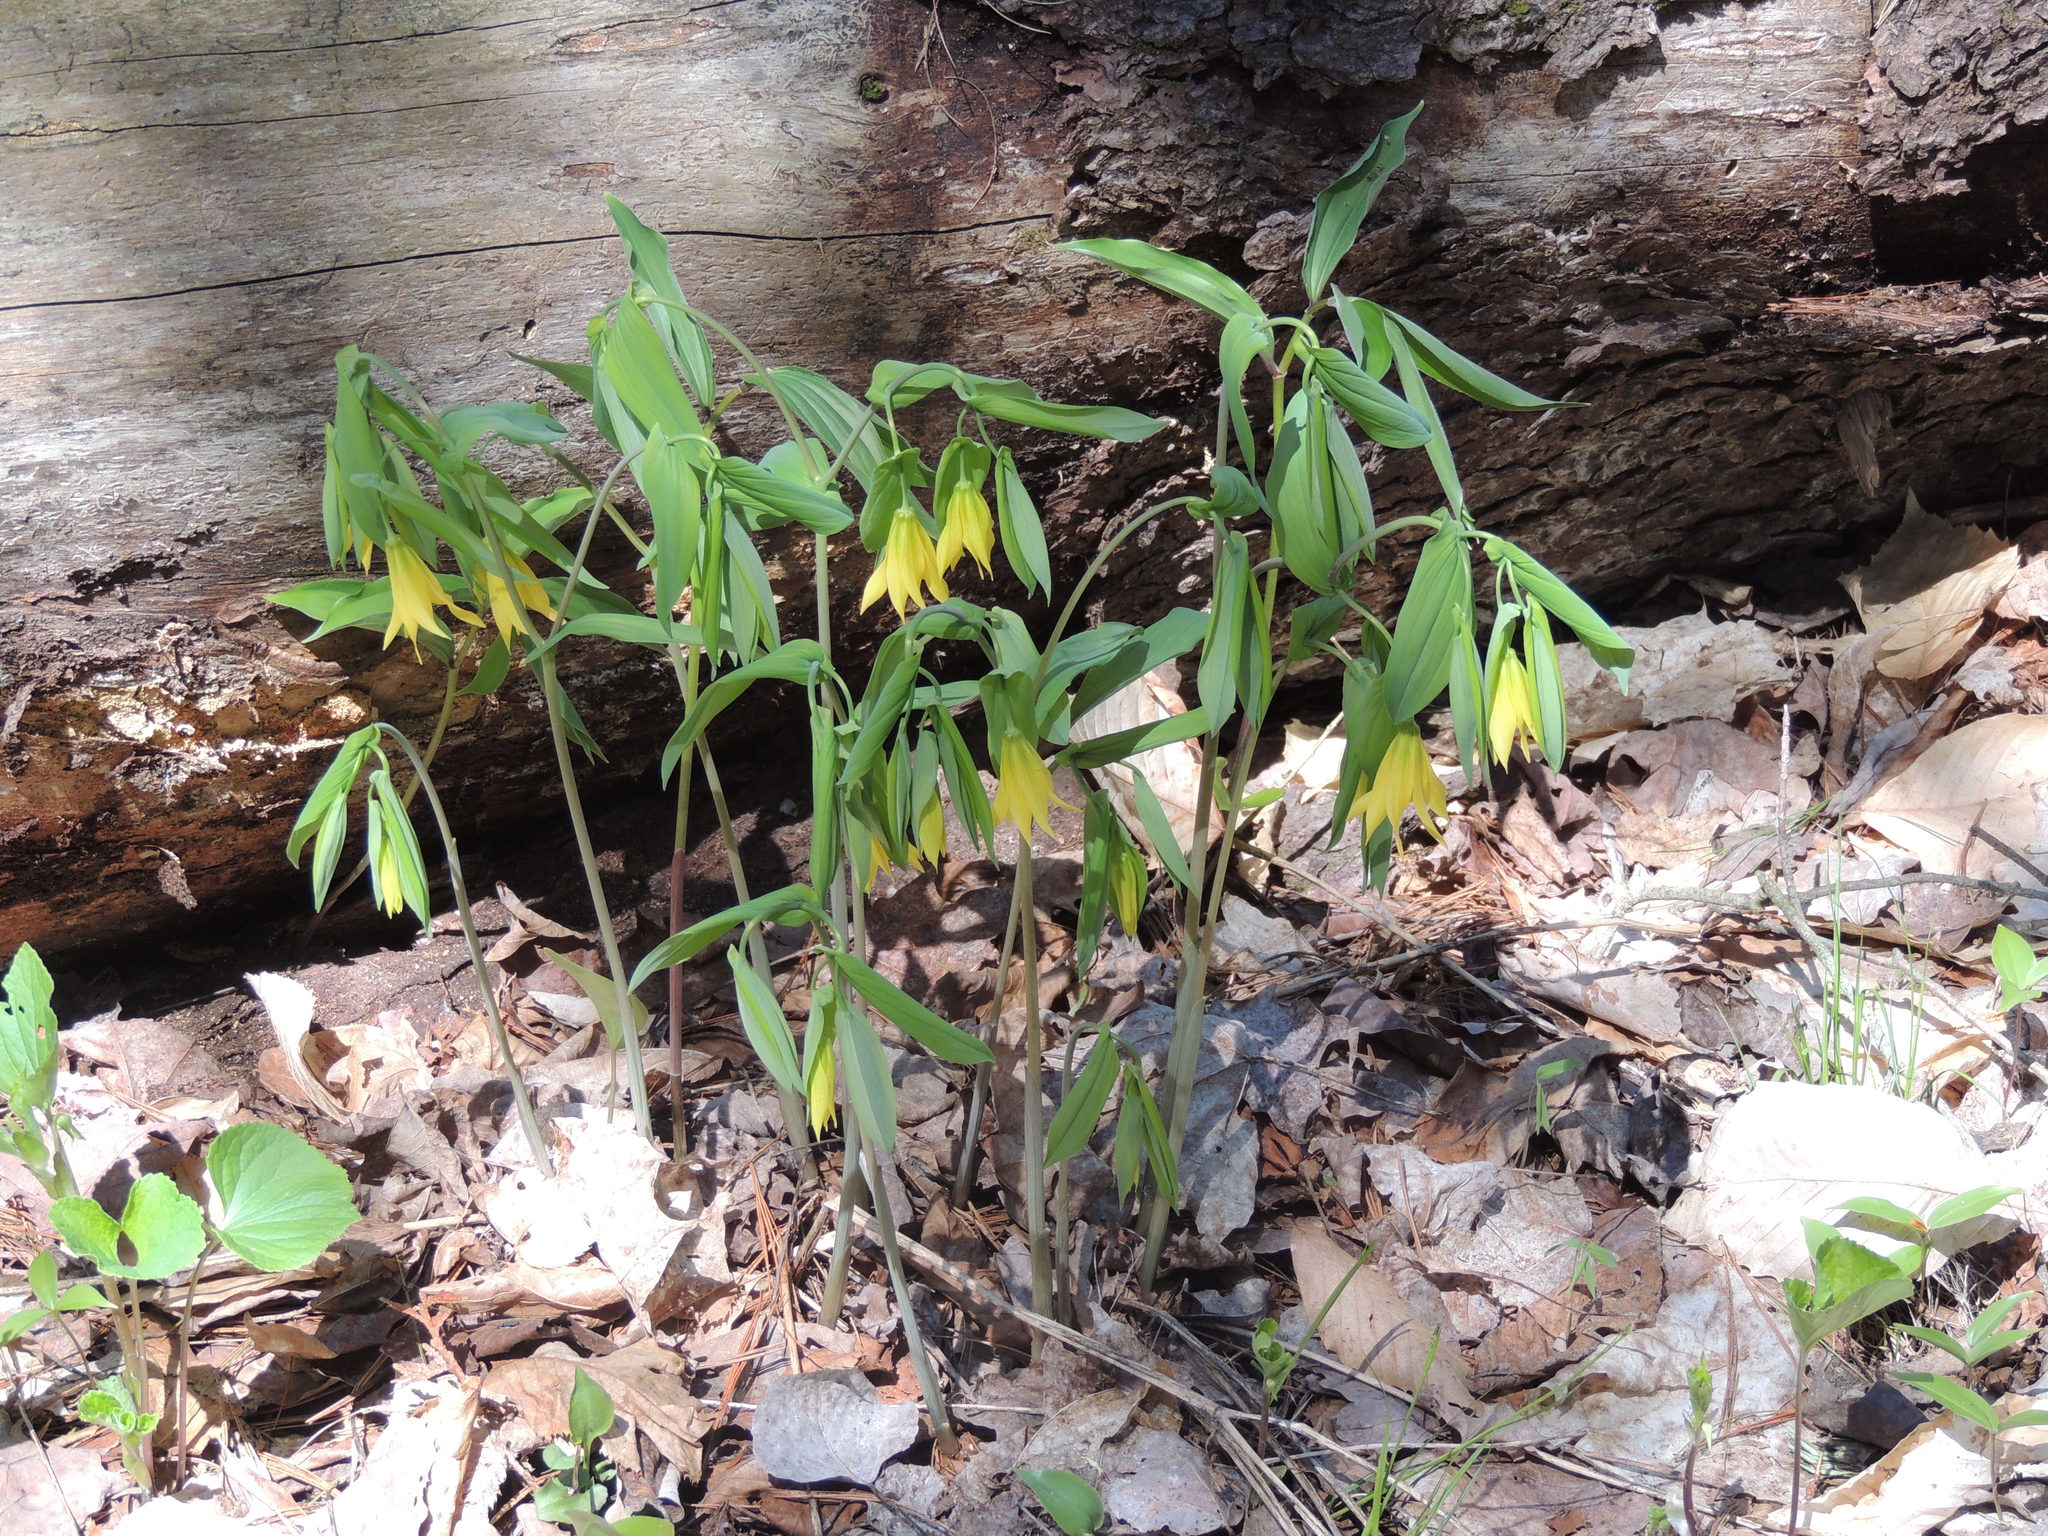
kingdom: Plantae
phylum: Tracheophyta
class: Liliopsida
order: Liliales
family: Colchicaceae
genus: Uvularia
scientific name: Uvularia grandiflora
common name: Bellwort
